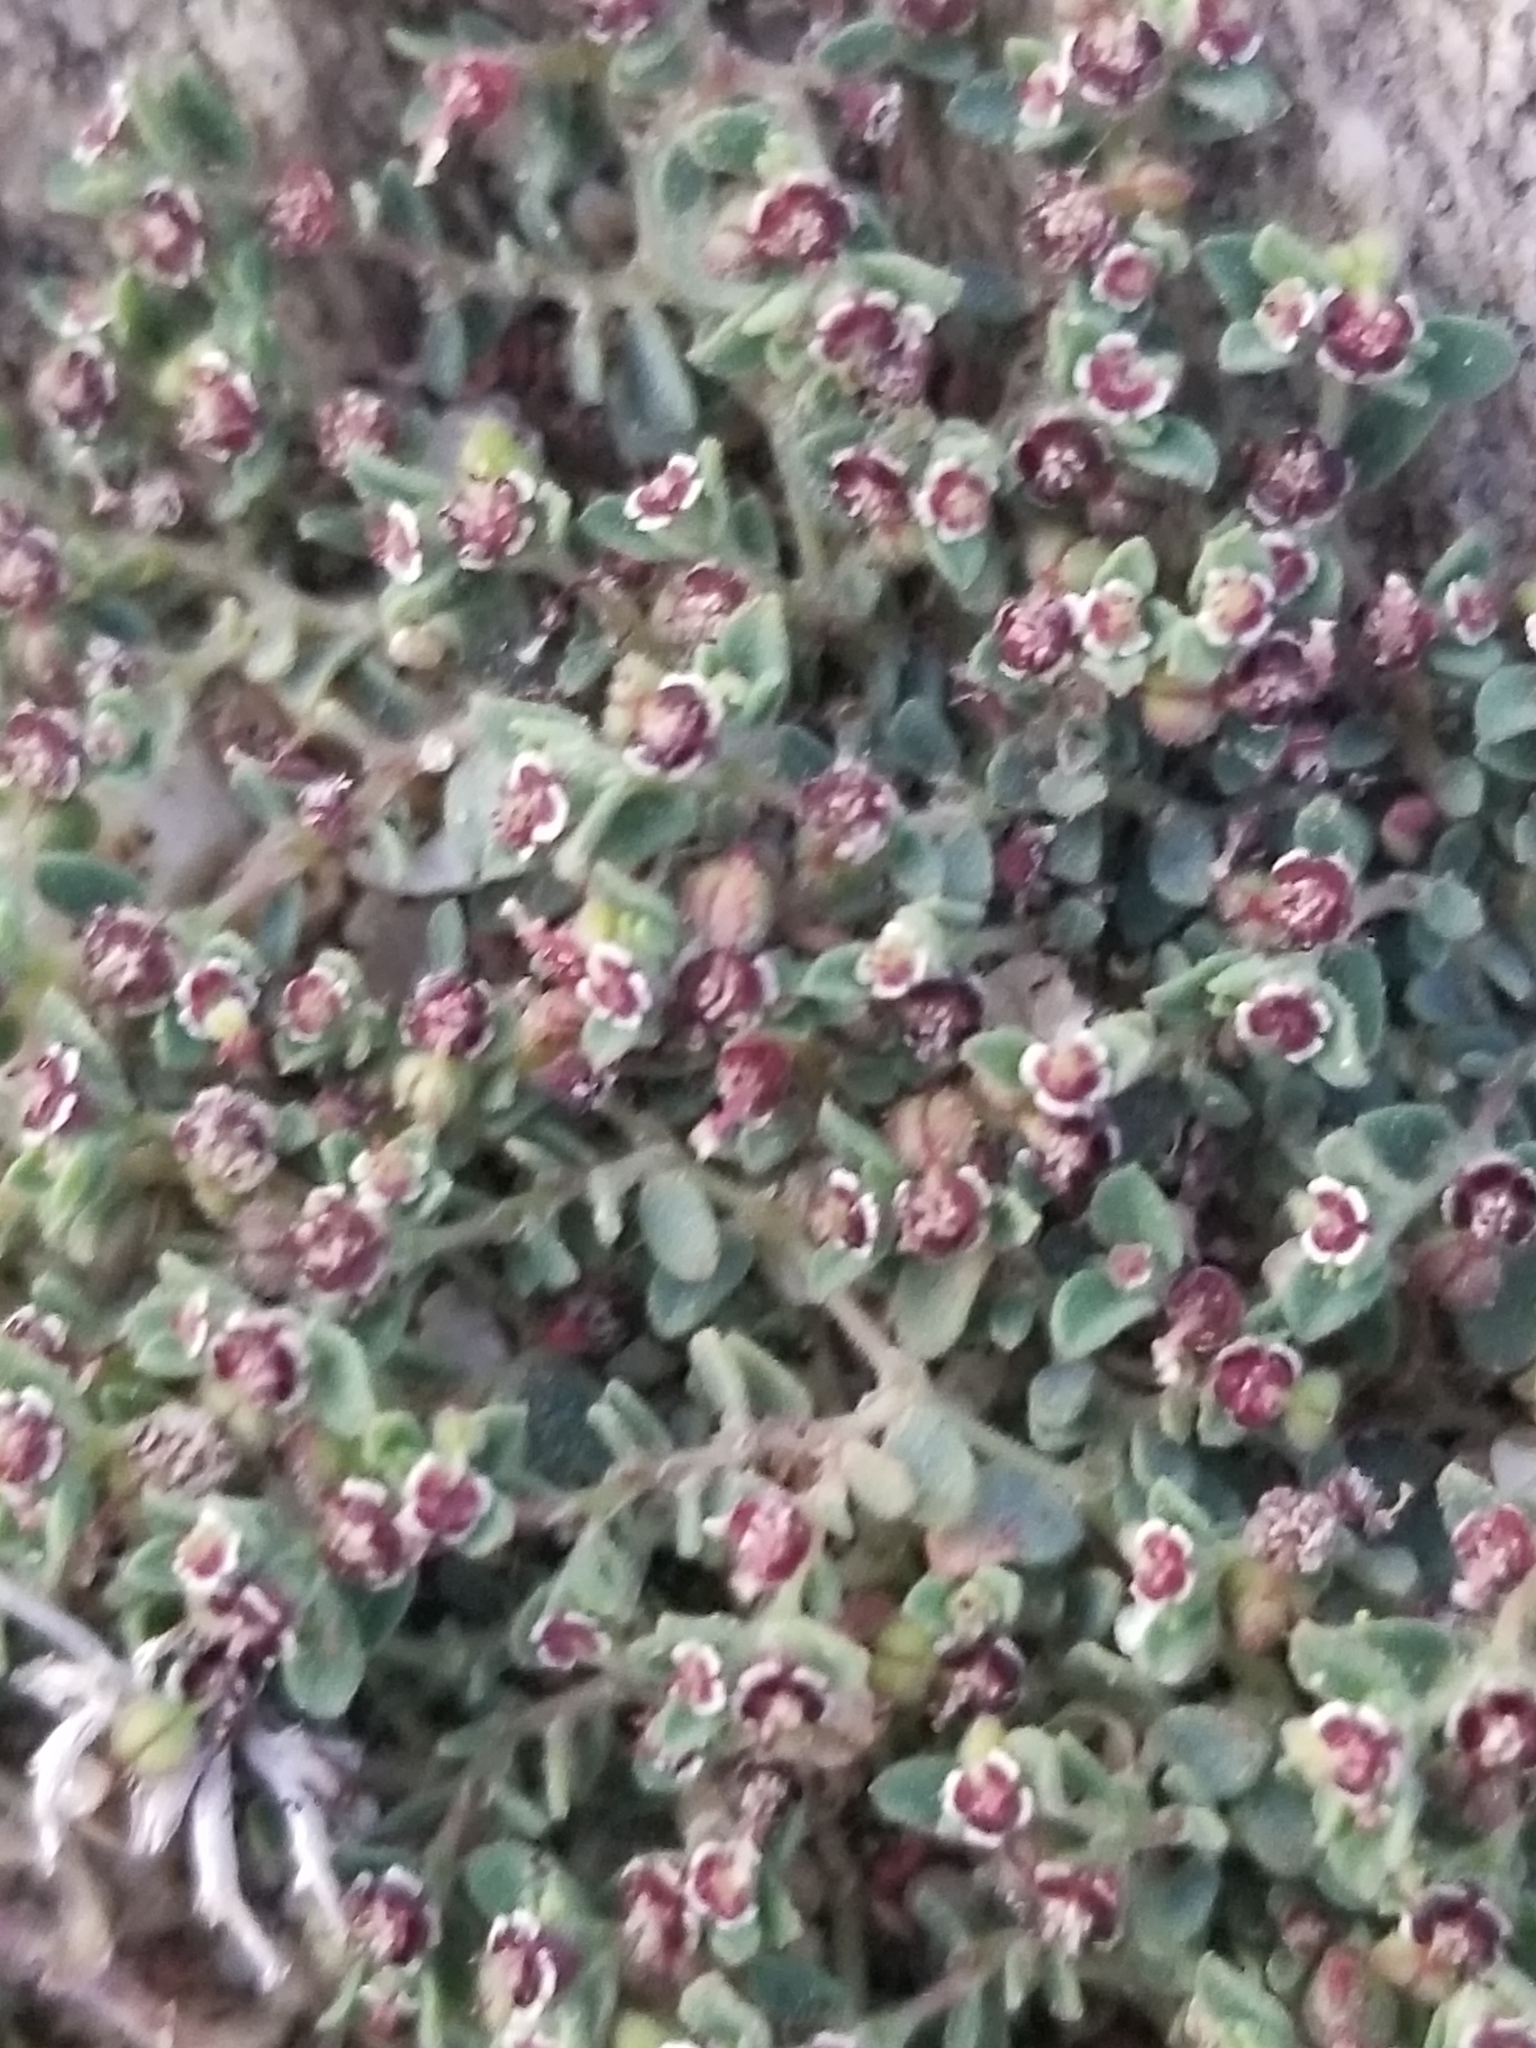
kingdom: Plantae
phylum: Tracheophyta
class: Magnoliopsida
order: Malpighiales
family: Euphorbiaceae
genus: Euphorbia
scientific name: Euphorbia polycarpa
